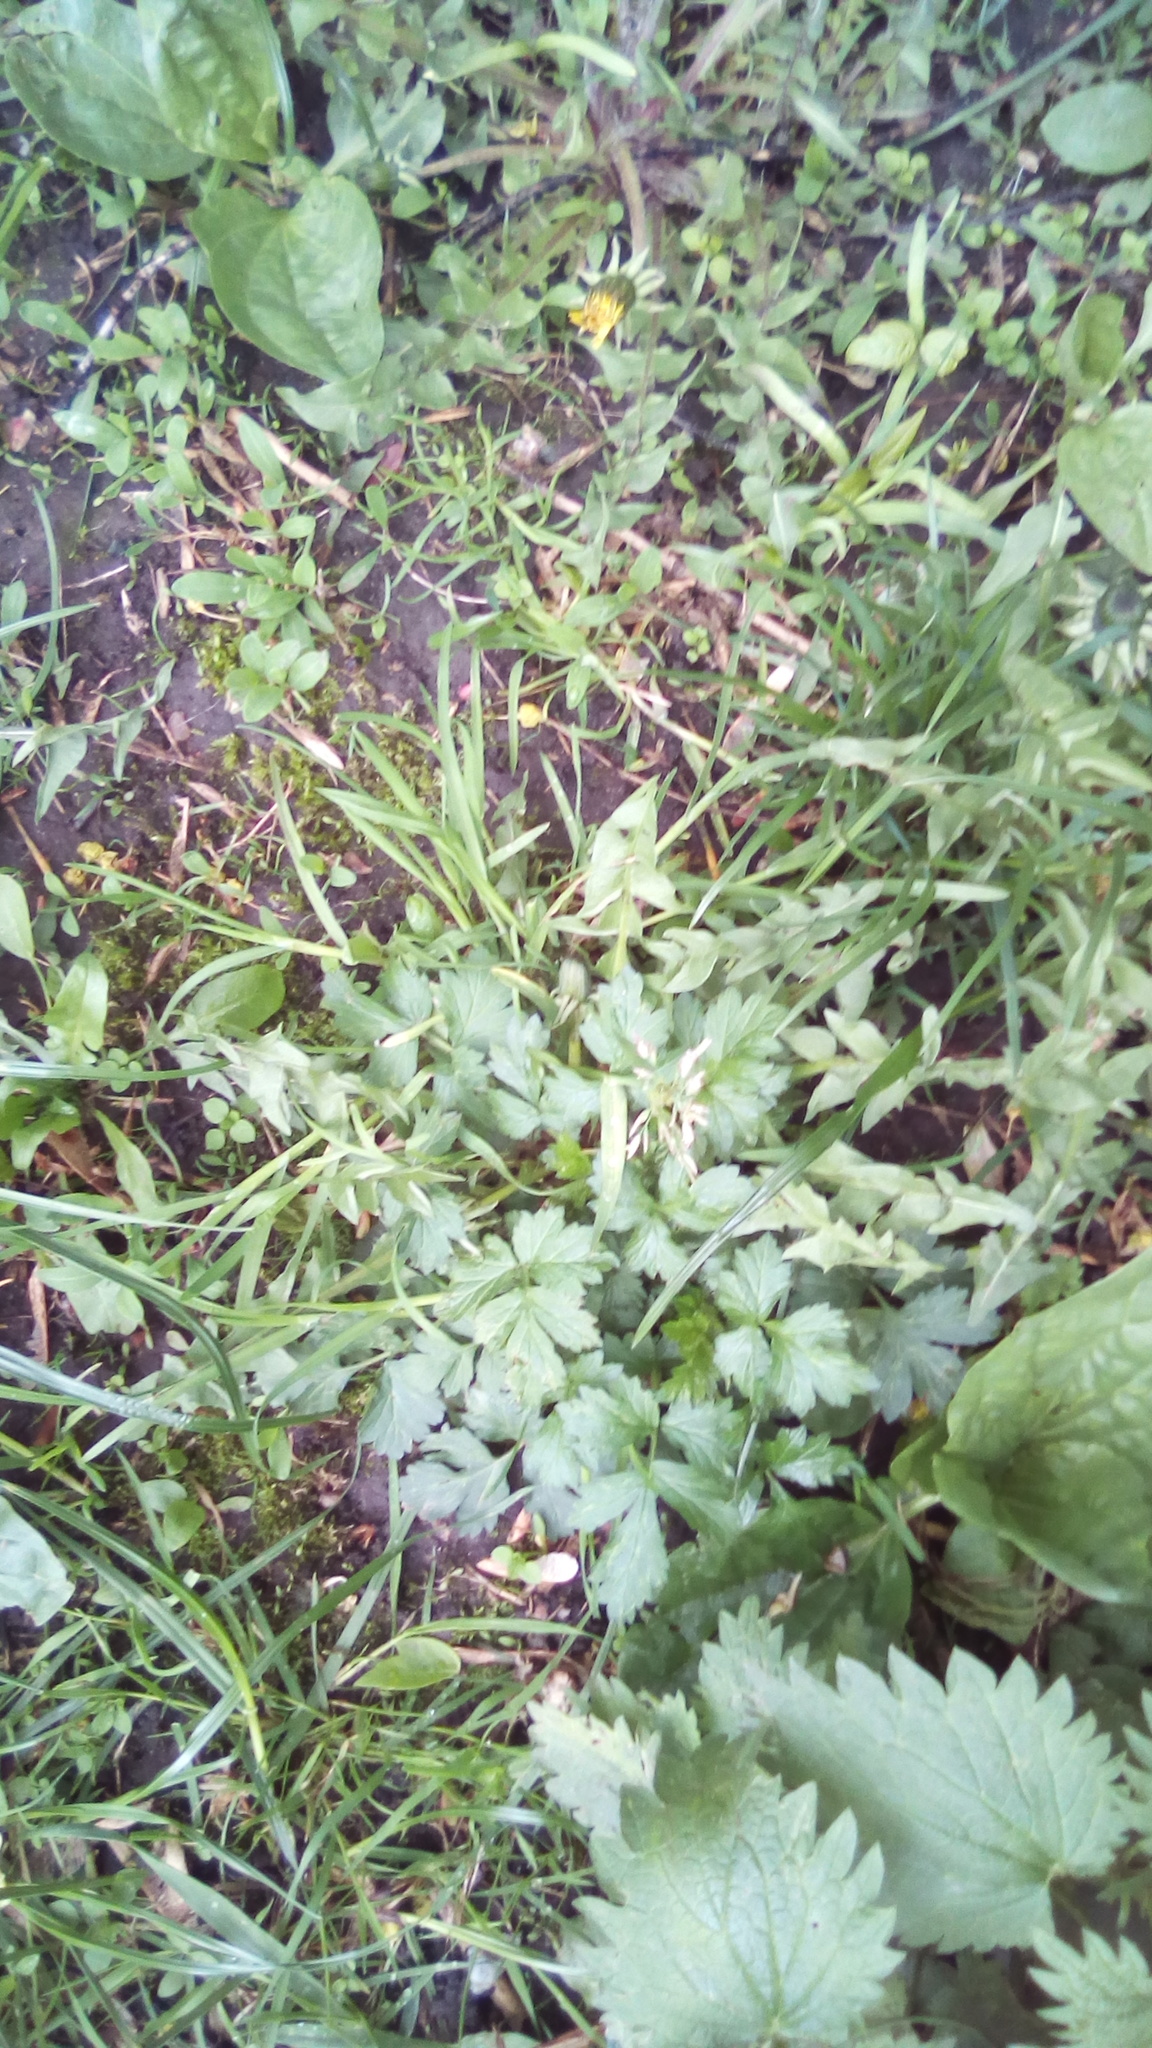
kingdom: Plantae
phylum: Tracheophyta
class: Magnoliopsida
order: Rosales
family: Rosaceae
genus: Geum
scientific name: Geum
